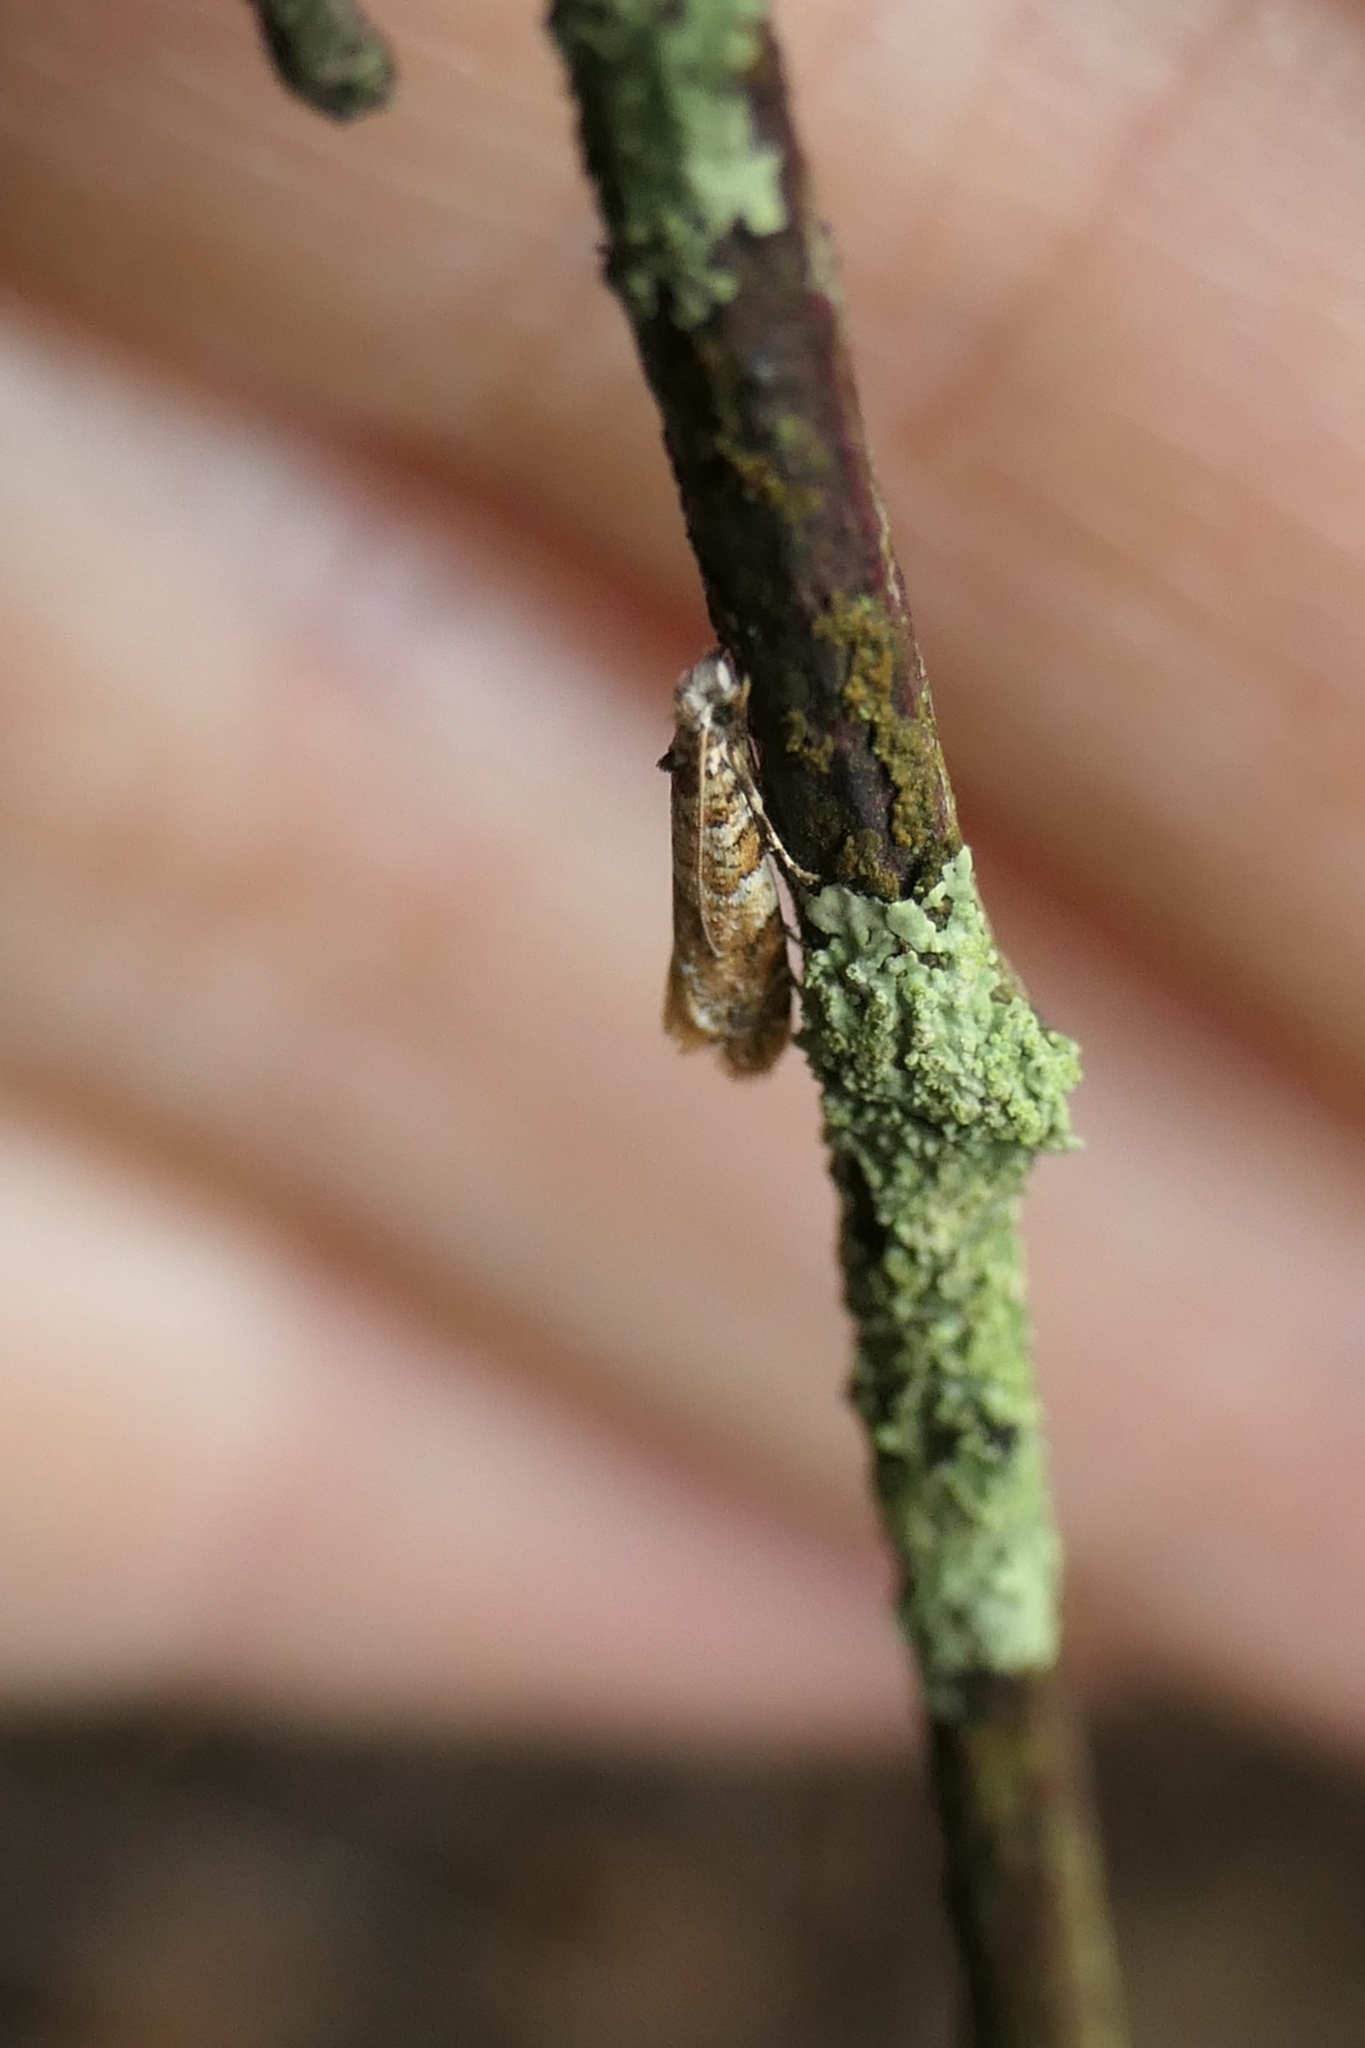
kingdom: Animalia
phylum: Arthropoda
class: Insecta
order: Lepidoptera
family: Tineidae
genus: Eschatotypa
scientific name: Eschatotypa derogatella
